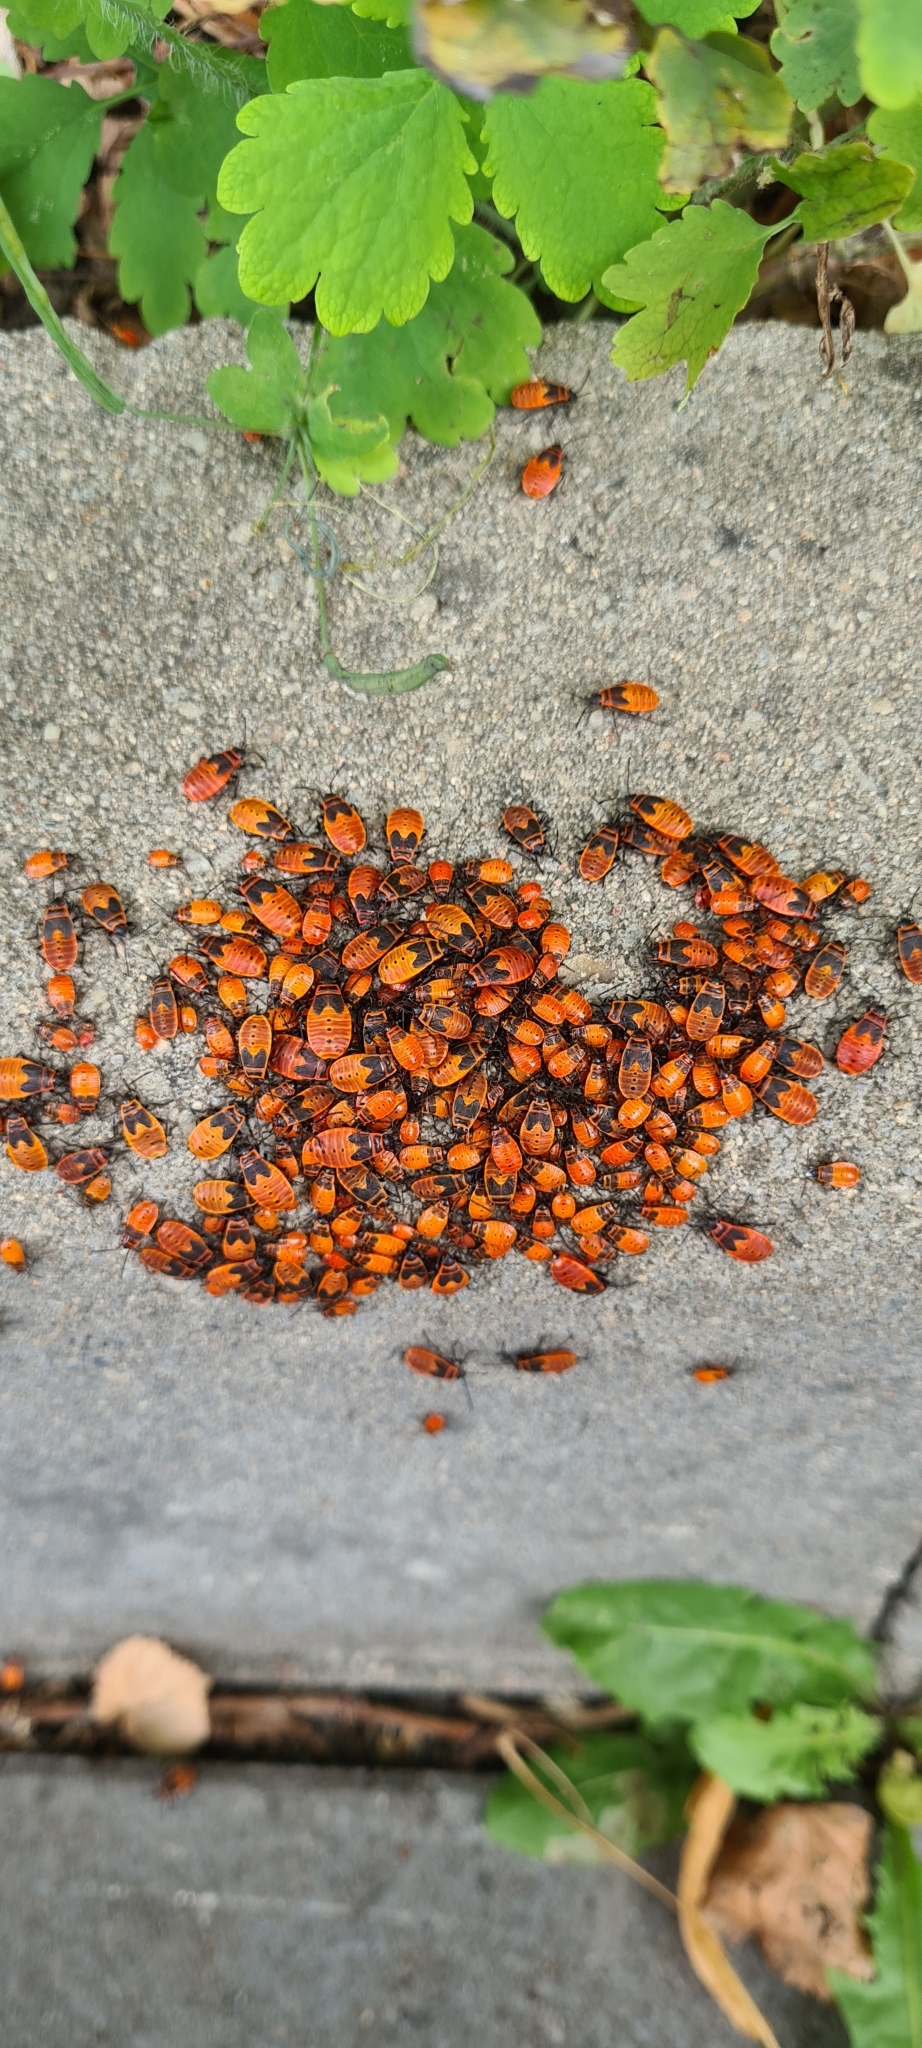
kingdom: Animalia
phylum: Arthropoda
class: Insecta
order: Hemiptera
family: Pyrrhocoridae
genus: Pyrrhocoris
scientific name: Pyrrhocoris apterus
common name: Firebug
